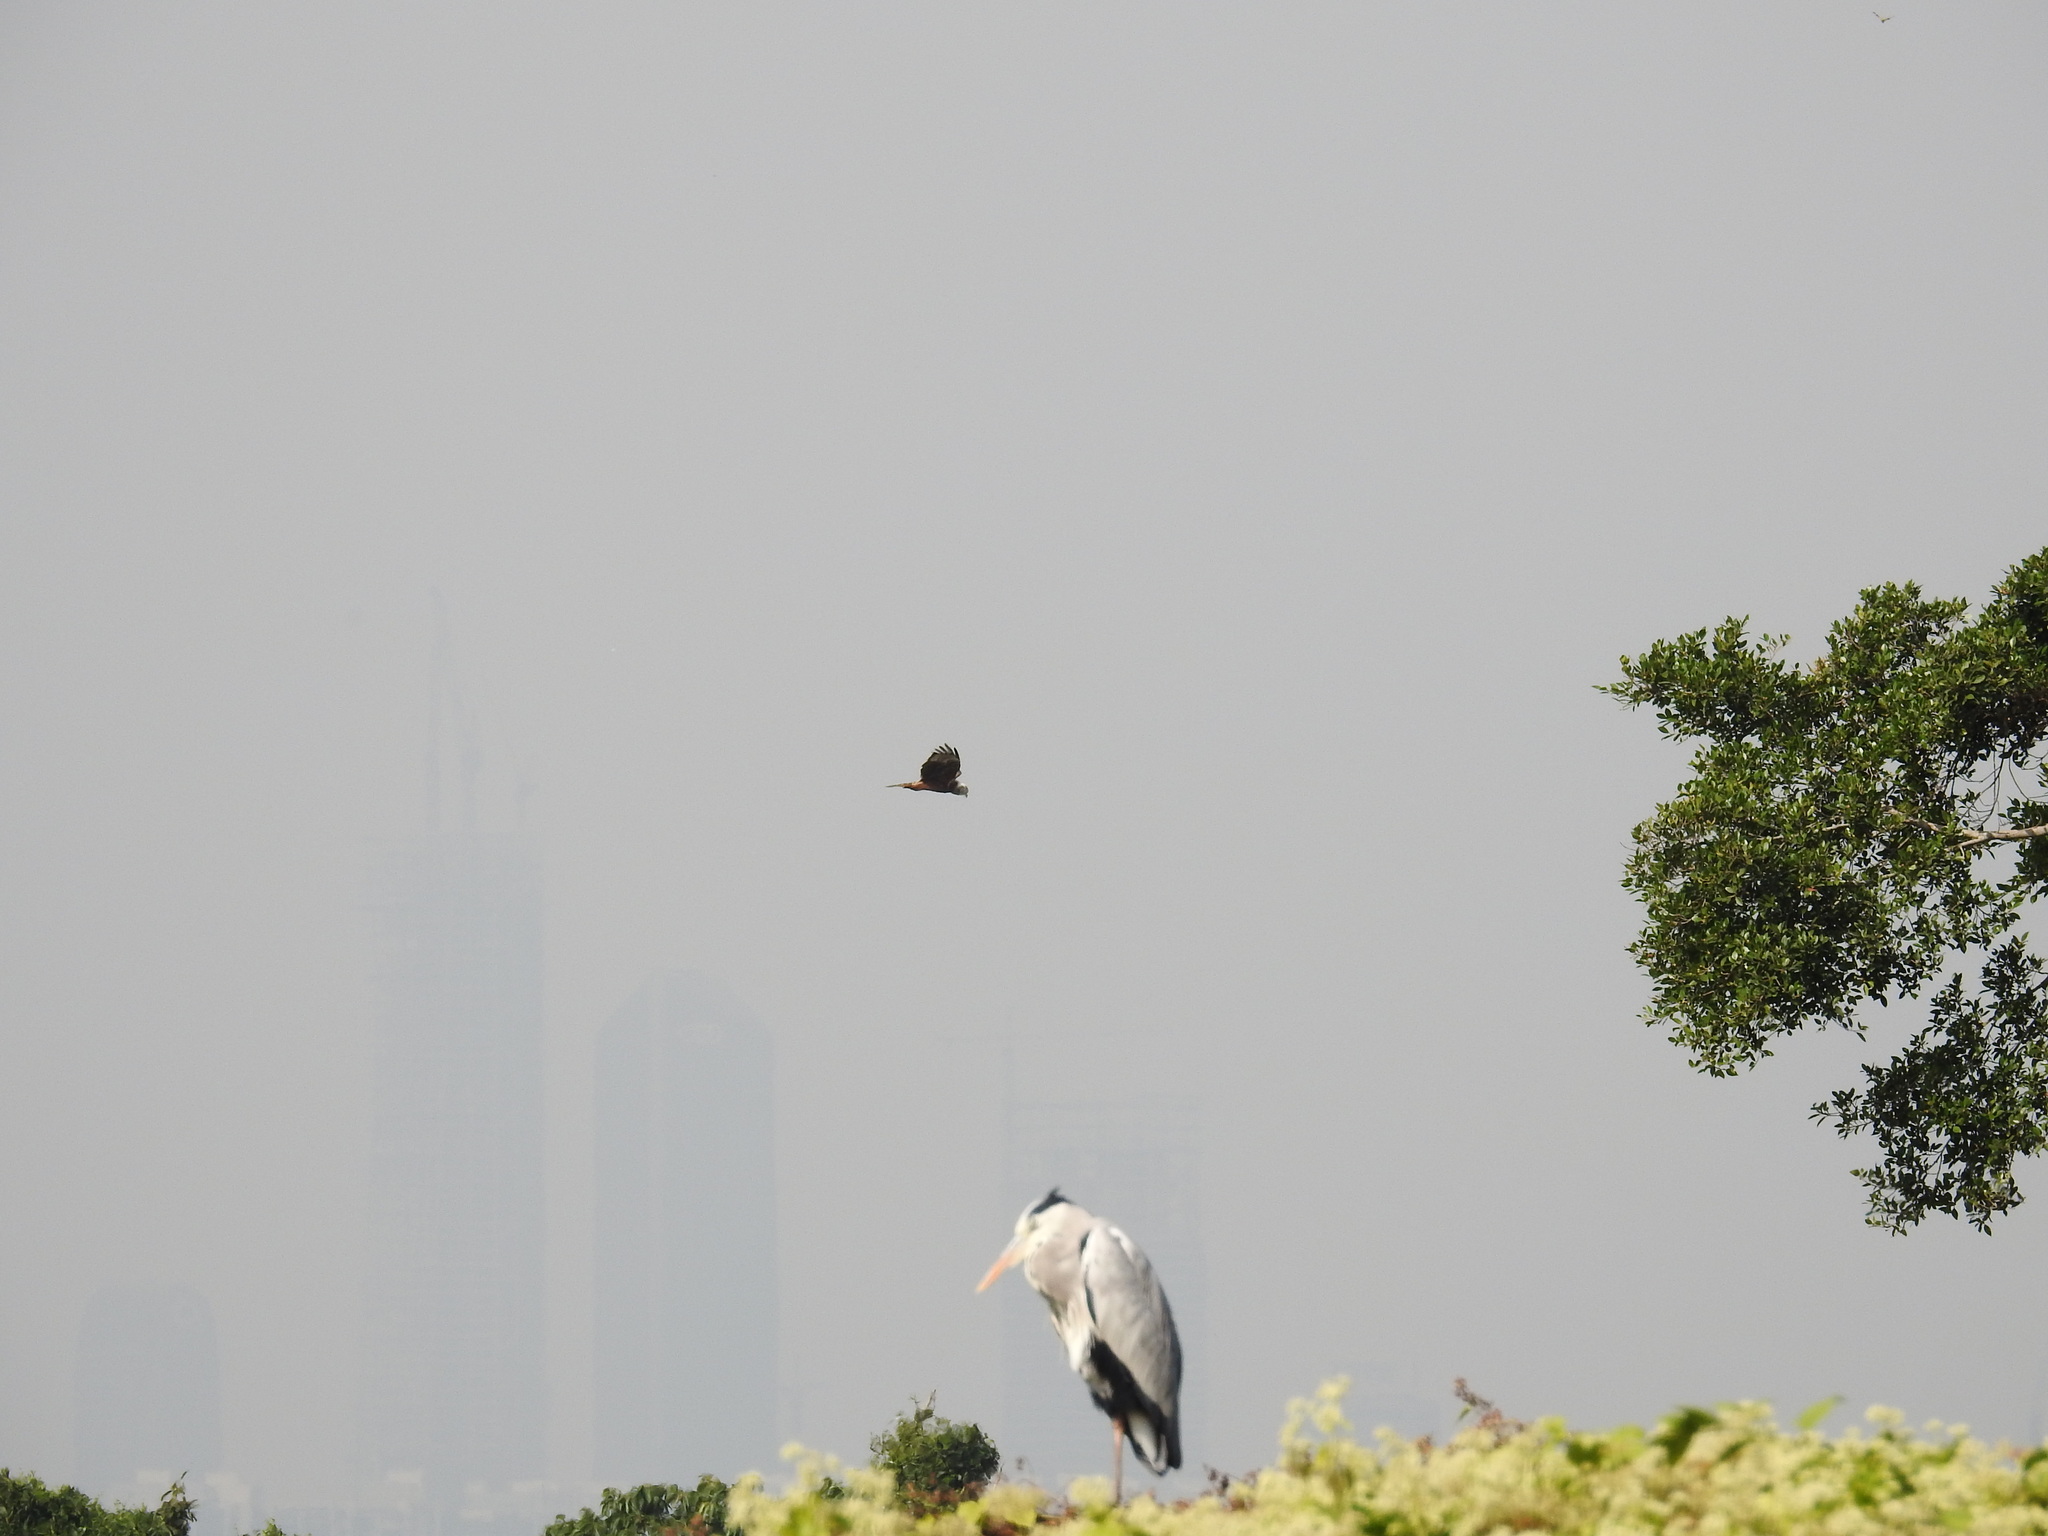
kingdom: Animalia
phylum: Chordata
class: Aves
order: Accipitriformes
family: Accipitridae
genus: Circus
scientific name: Circus spilonotus
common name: Eastern marsh-harrier
